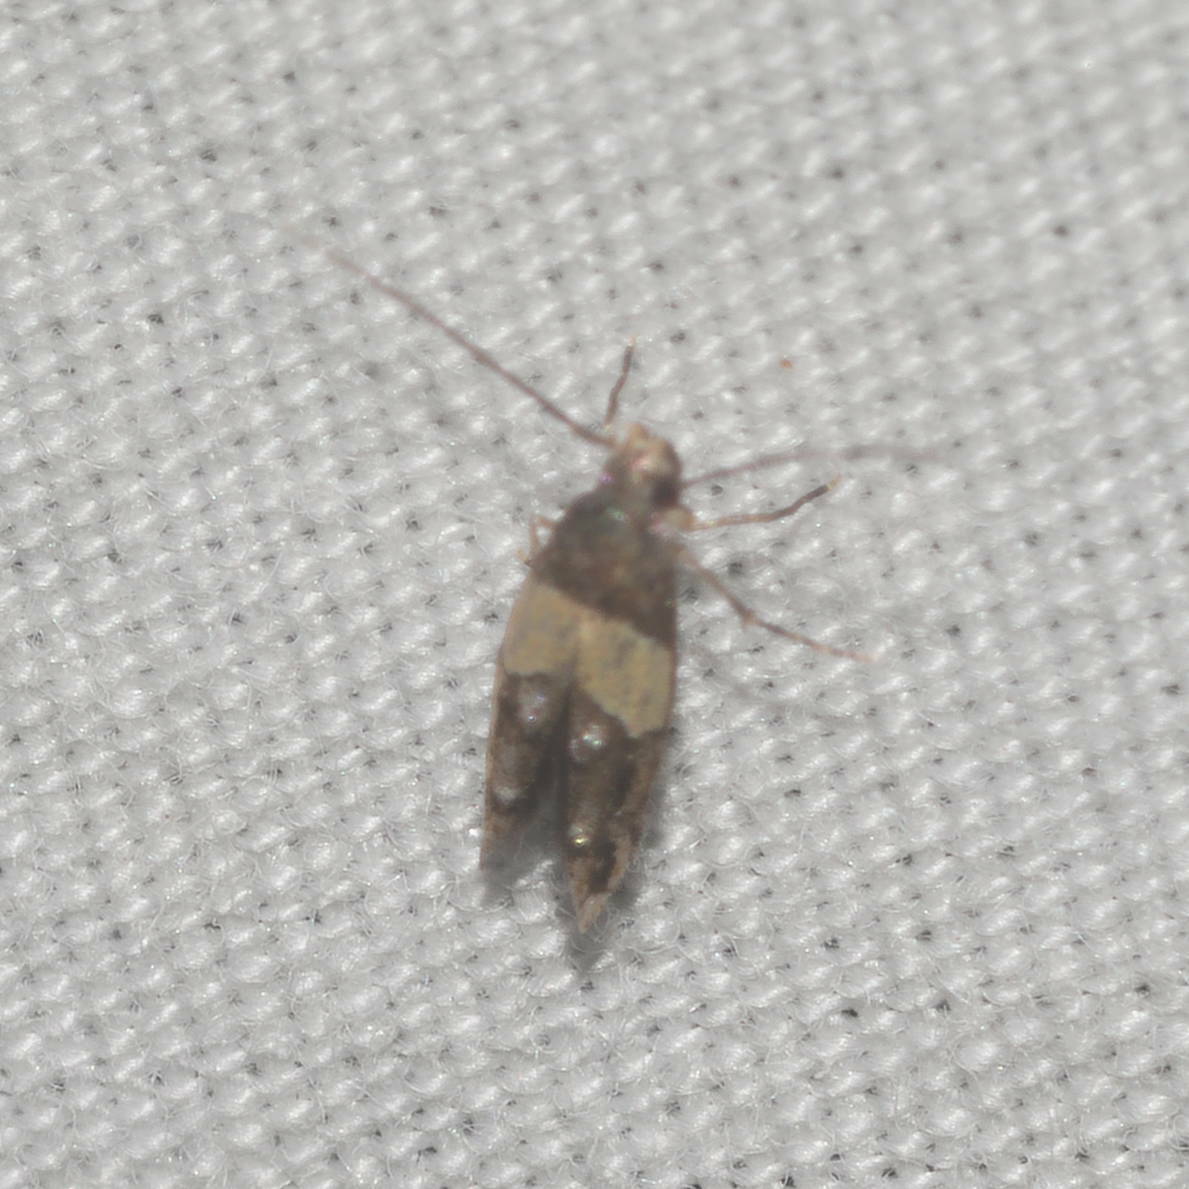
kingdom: Animalia
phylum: Arthropoda
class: Insecta
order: Lepidoptera
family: Momphidae
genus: Mompha
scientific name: Mompha trithalama
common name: Moth
